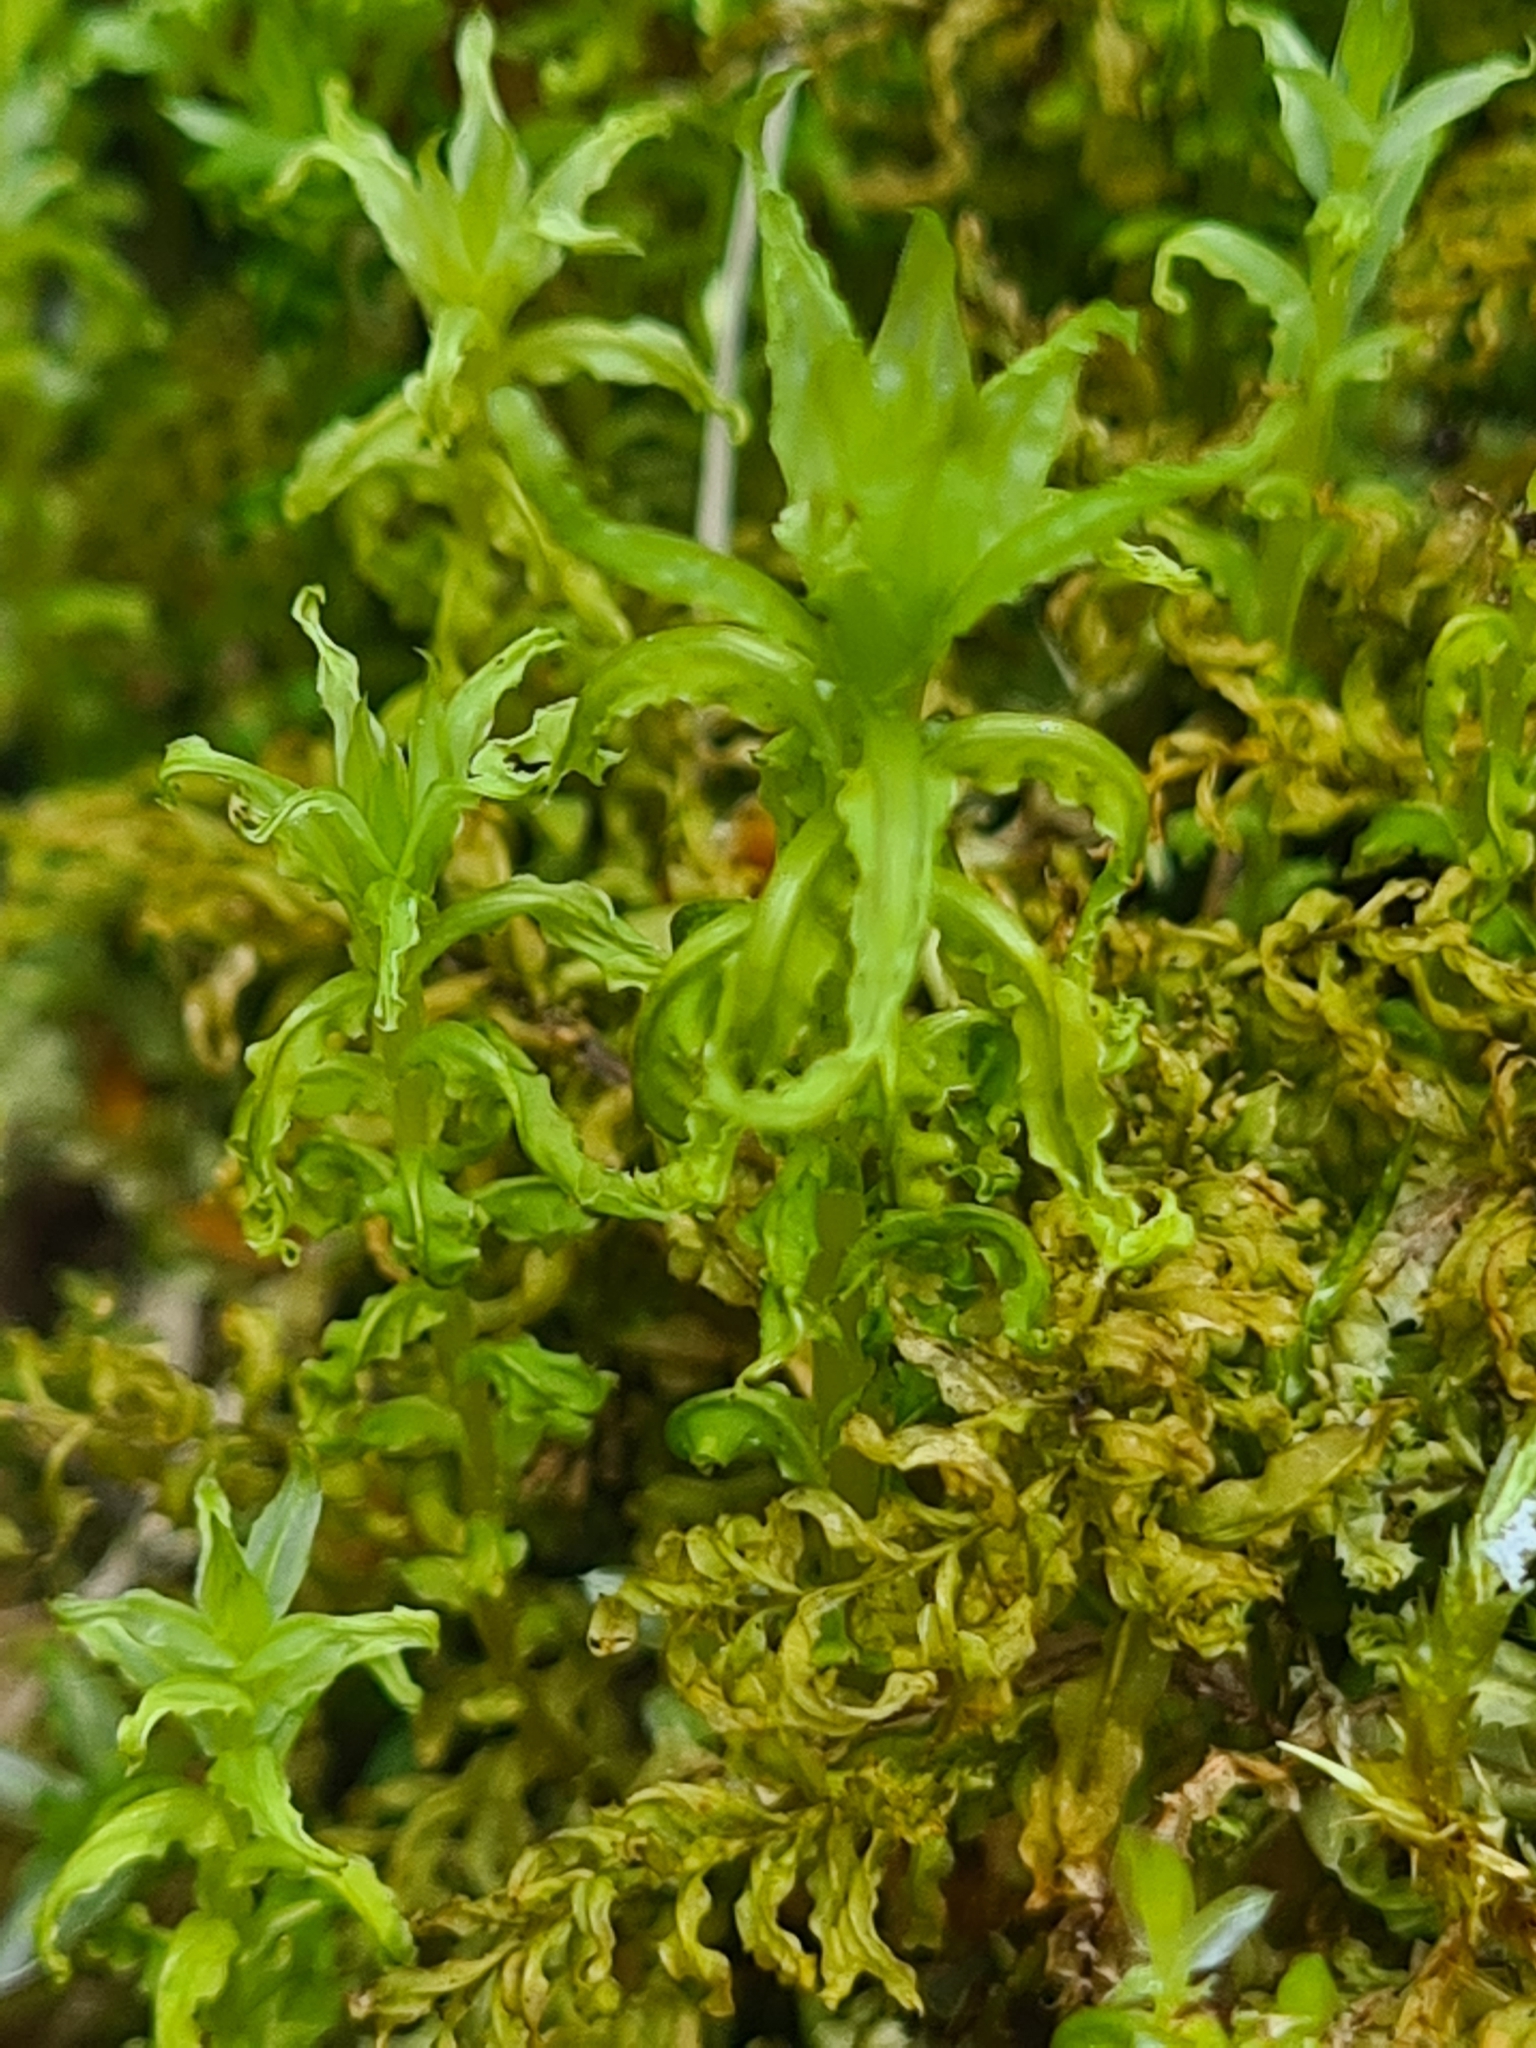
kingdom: Plantae
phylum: Bryophyta
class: Bryopsida
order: Bryales
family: Mniaceae
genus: Plagiomnium
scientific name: Plagiomnium undulatum
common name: Hart's-tongue thyme-moss
